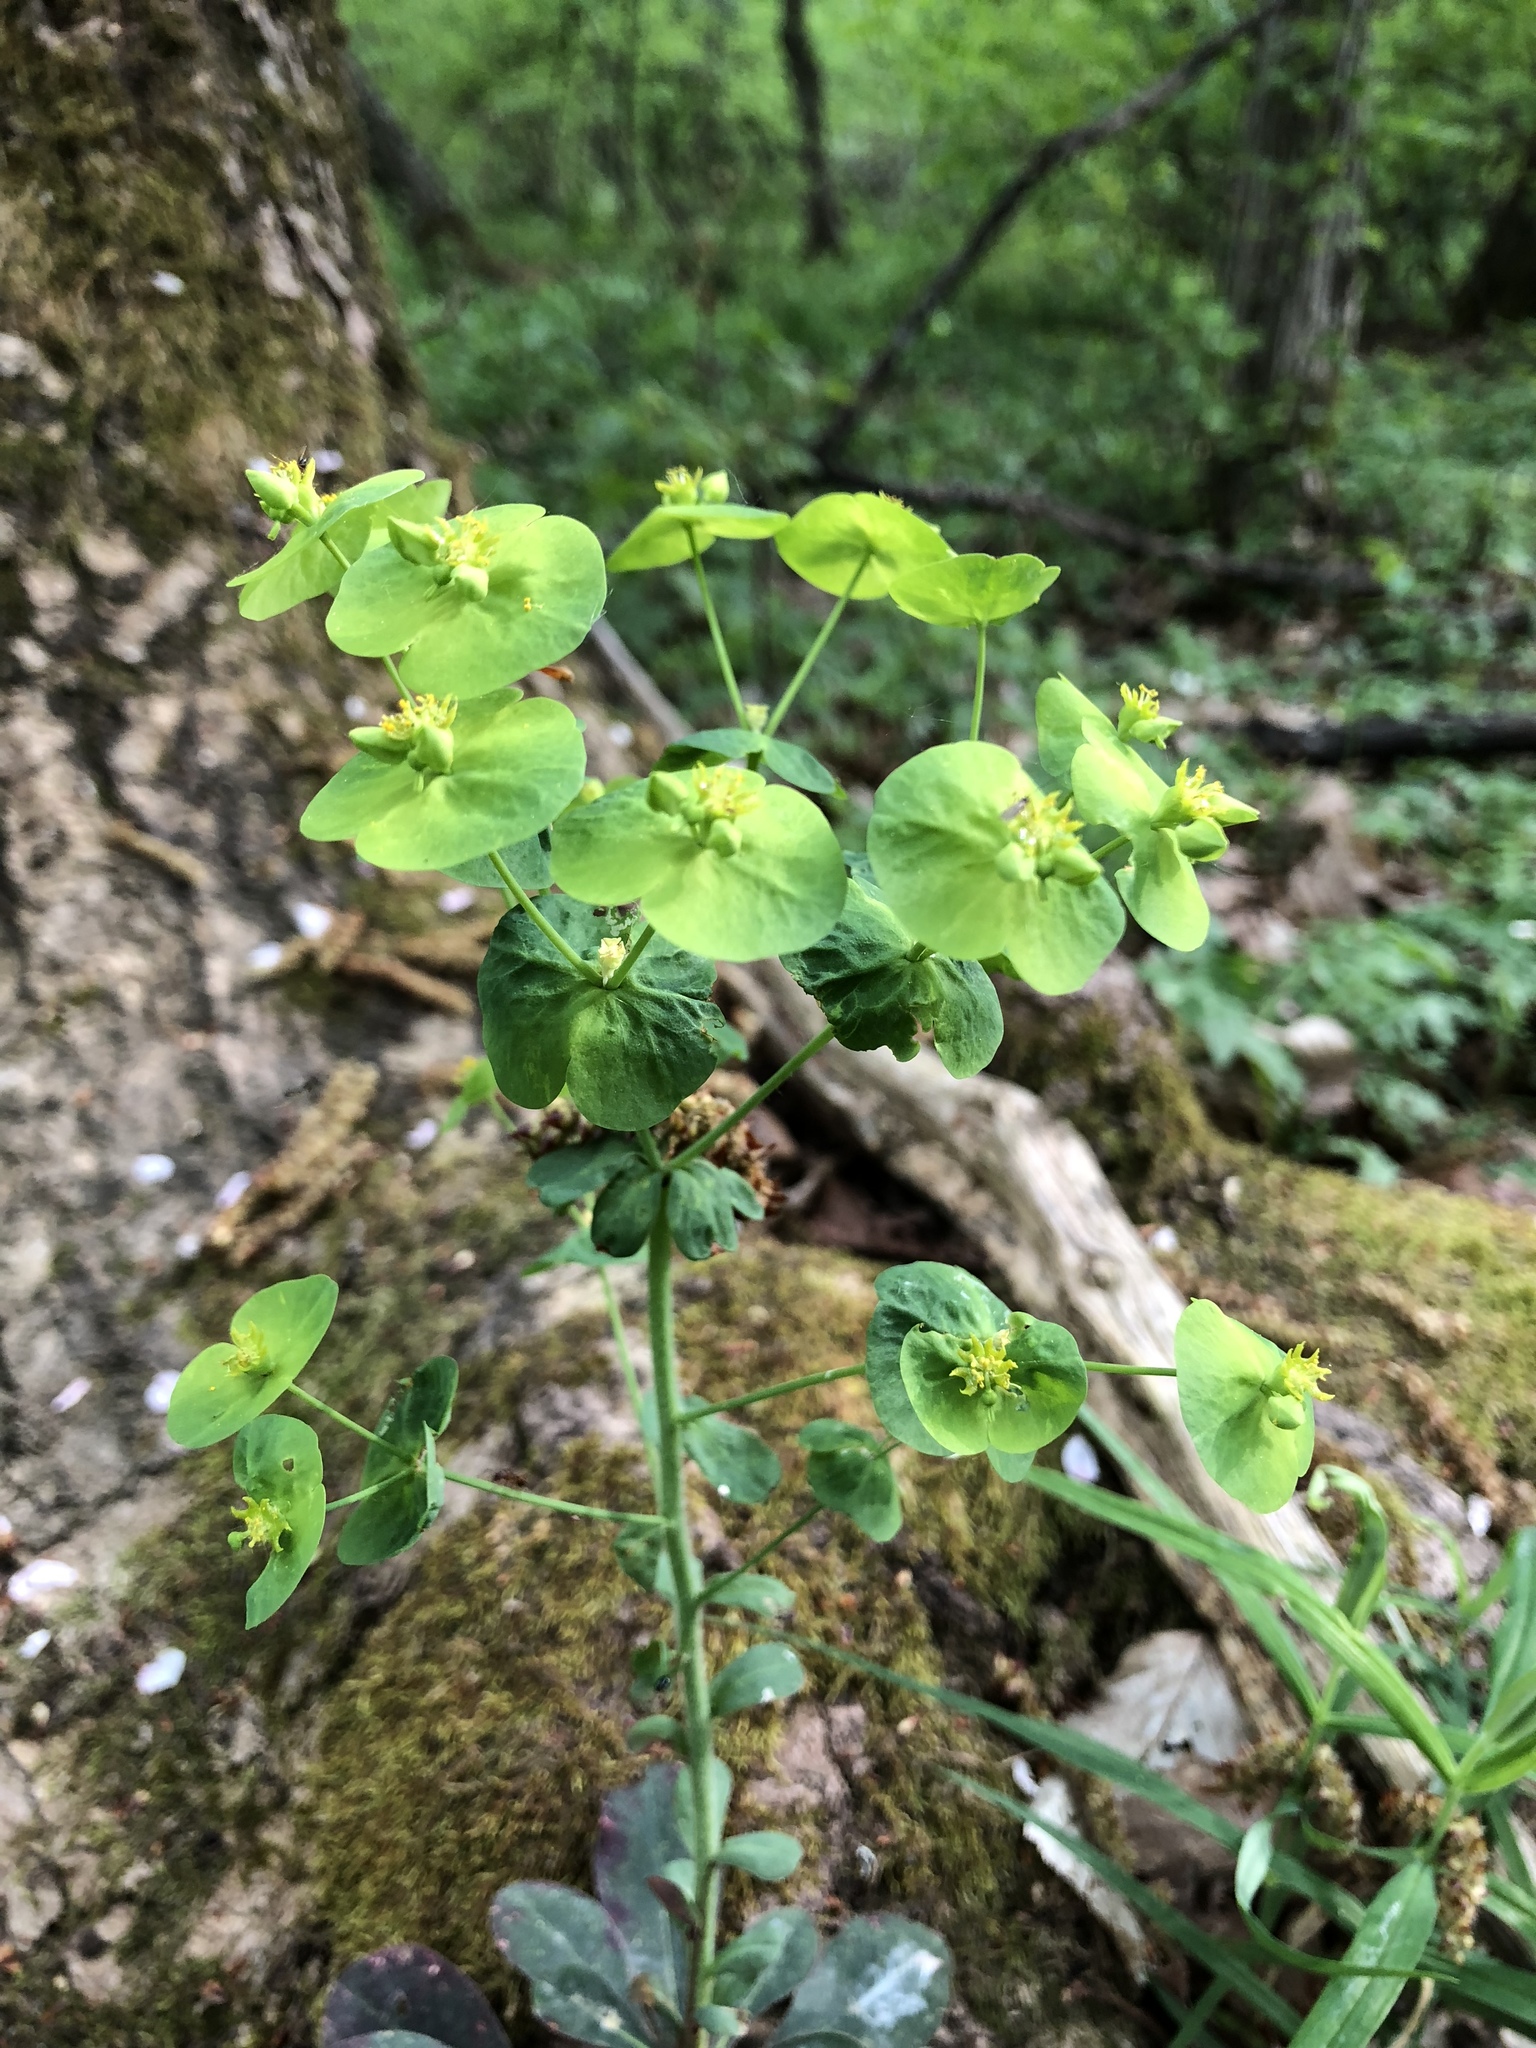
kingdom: Plantae
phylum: Tracheophyta
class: Magnoliopsida
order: Malpighiales
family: Euphorbiaceae
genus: Euphorbia
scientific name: Euphorbia amygdaloides
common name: Wood spurge
